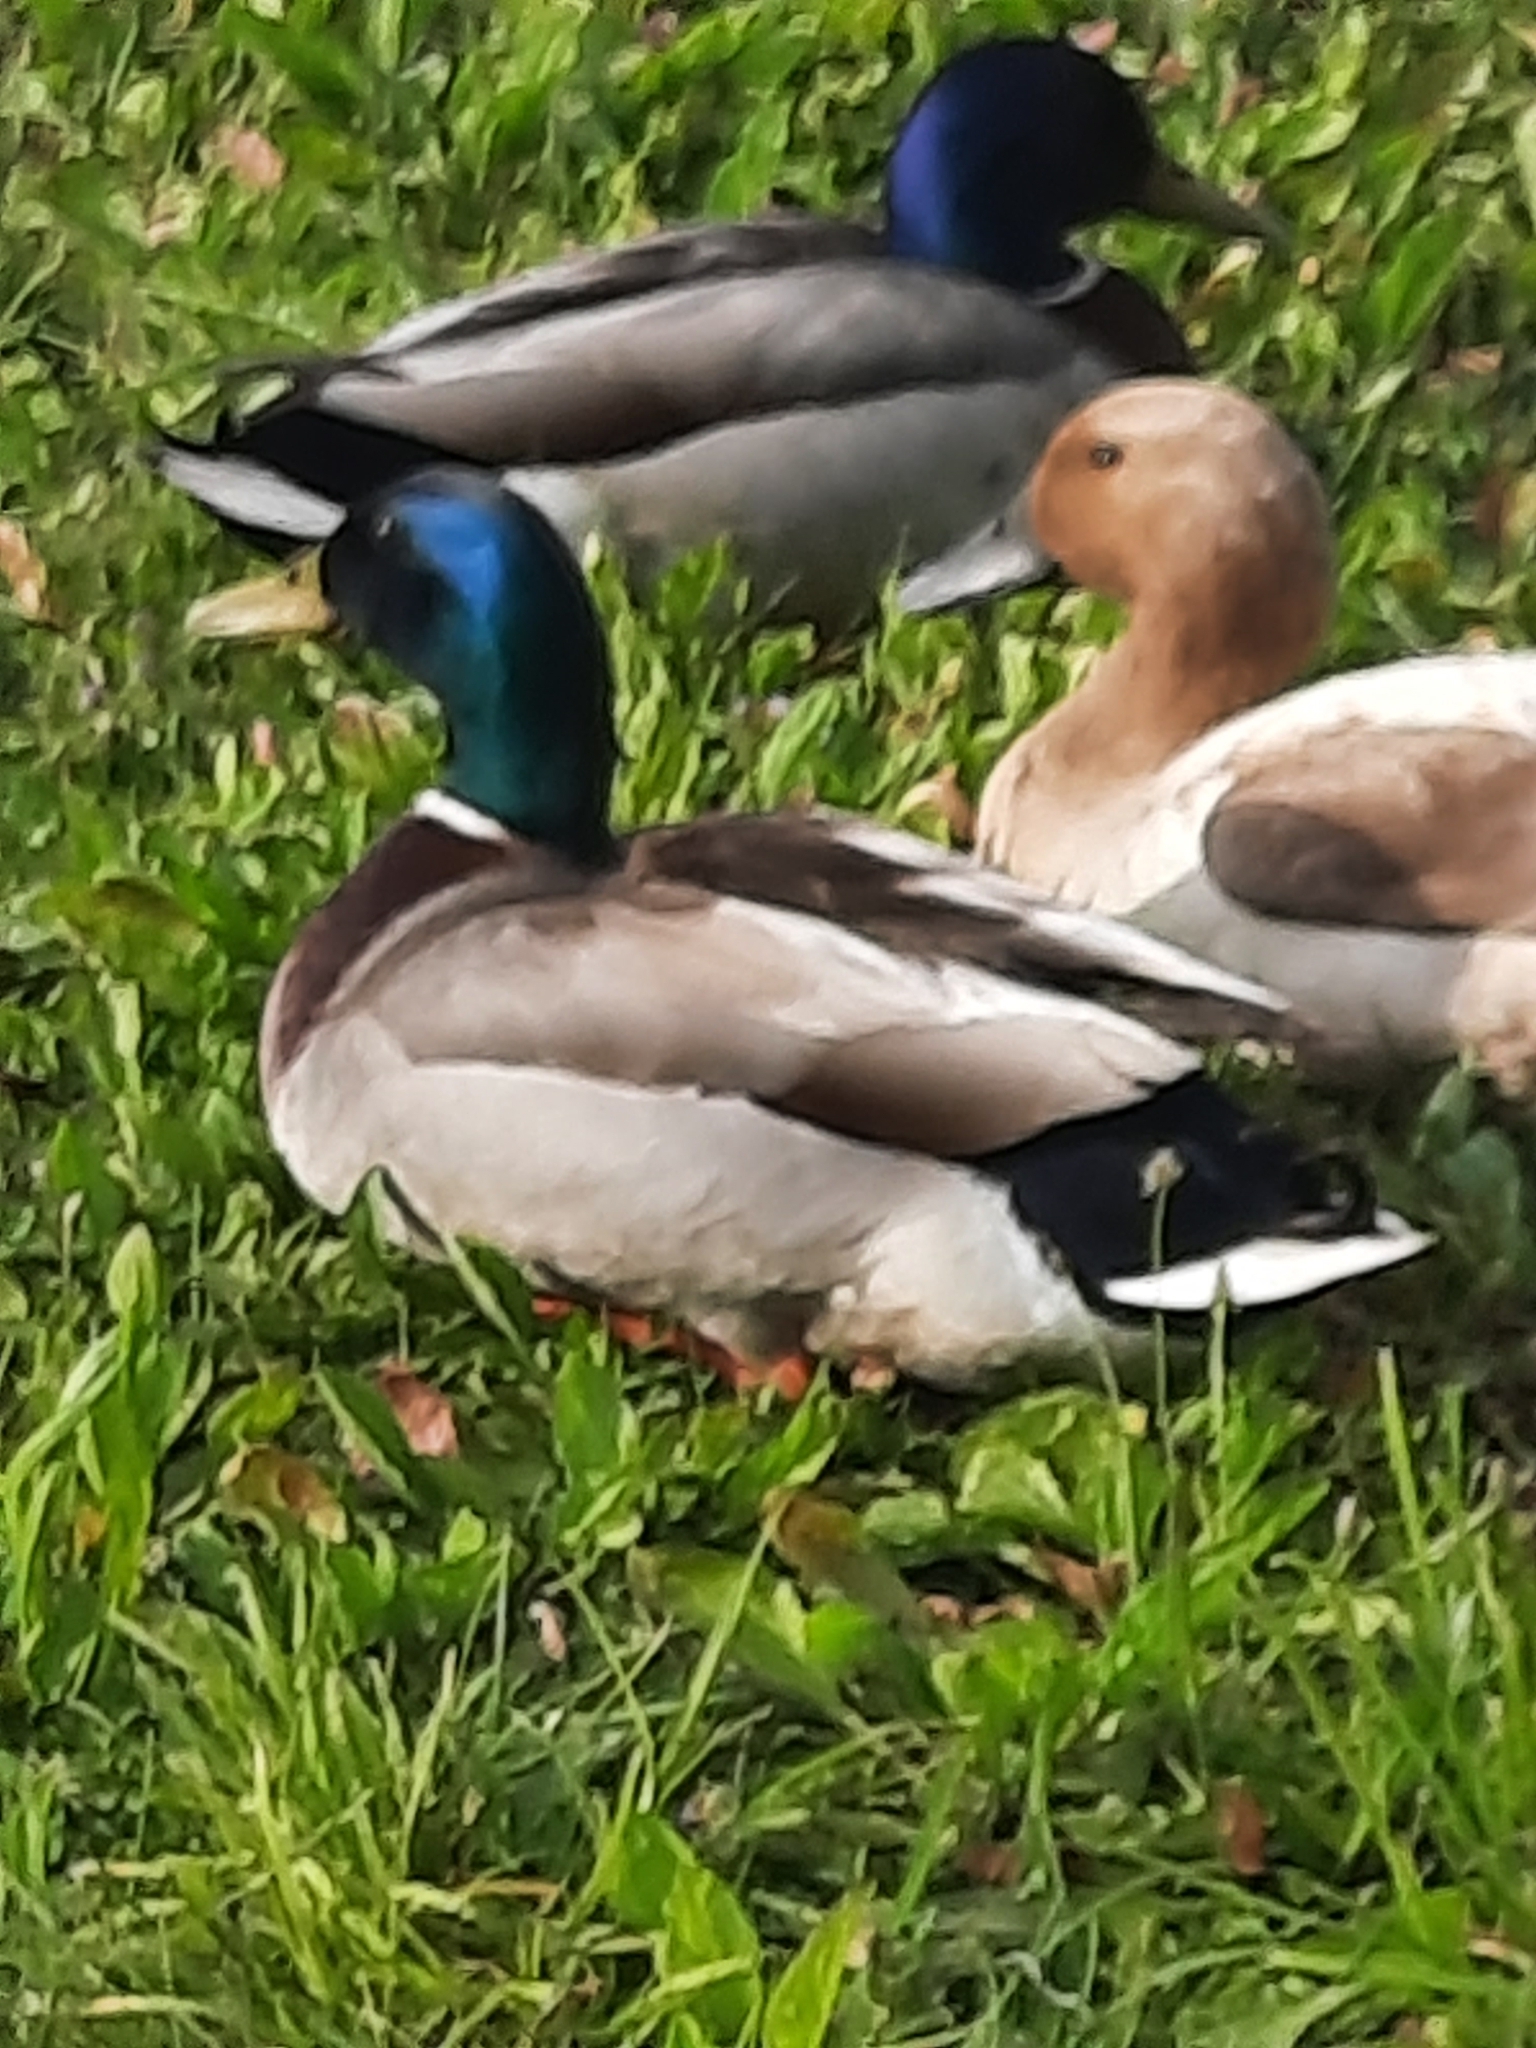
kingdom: Animalia
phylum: Chordata
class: Aves
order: Anseriformes
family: Anatidae
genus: Anas
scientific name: Anas platyrhynchos
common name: Mallard
